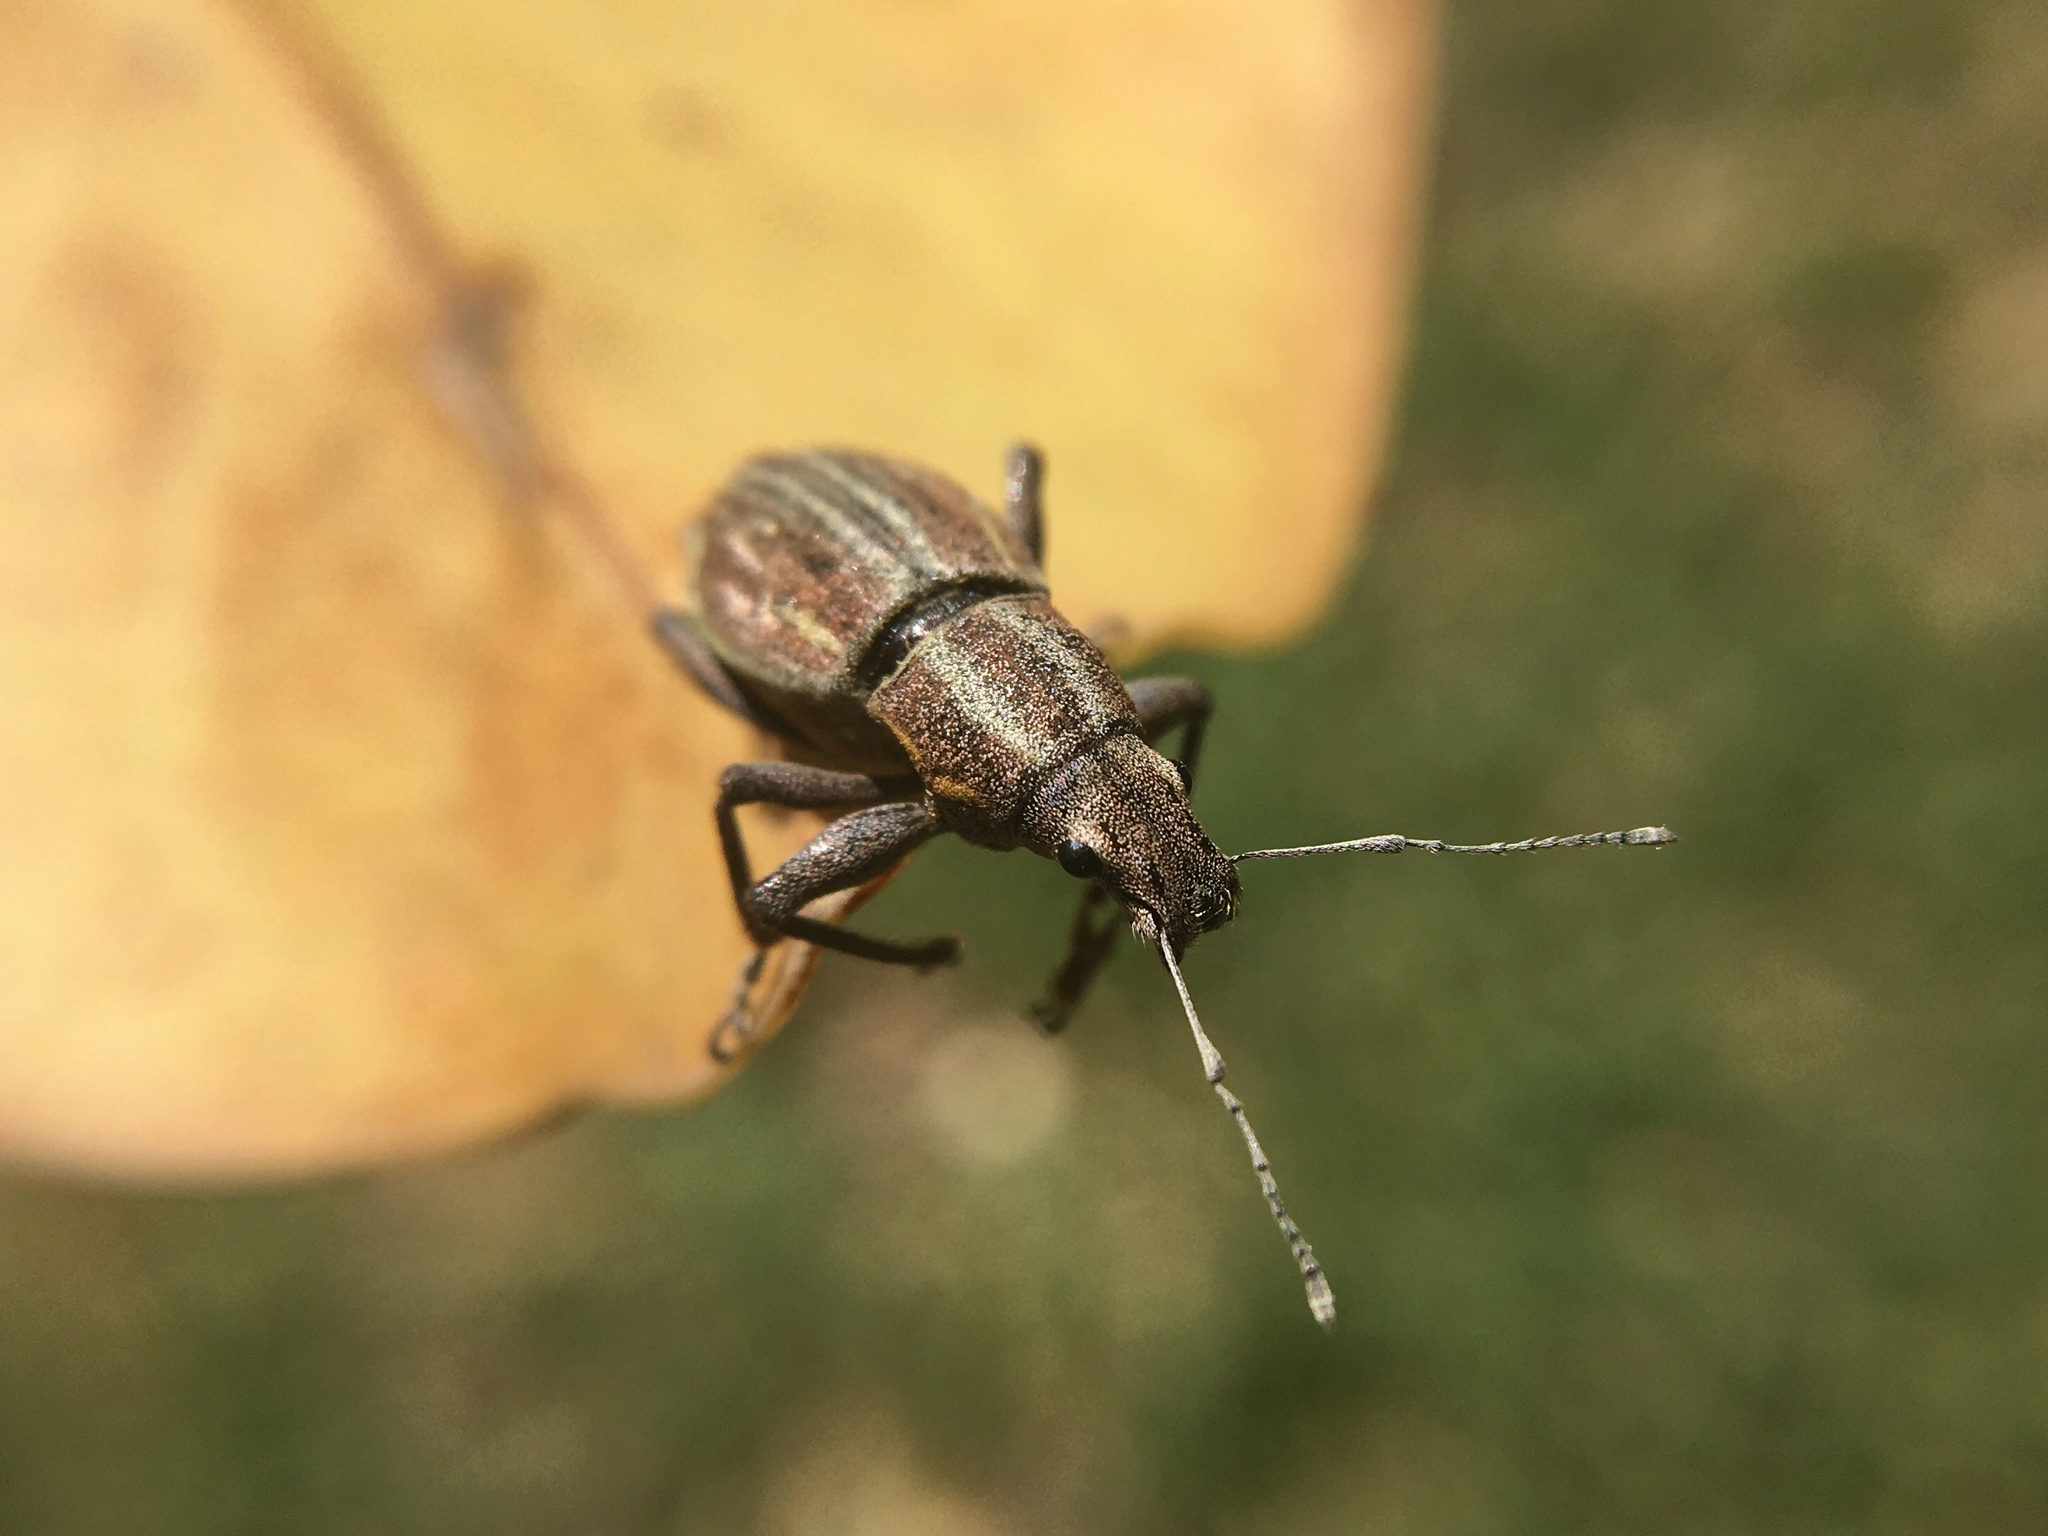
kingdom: Animalia
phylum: Arthropoda
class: Insecta
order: Coleoptera
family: Curculionidae
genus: Naupactus
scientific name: Naupactus xanthographus
